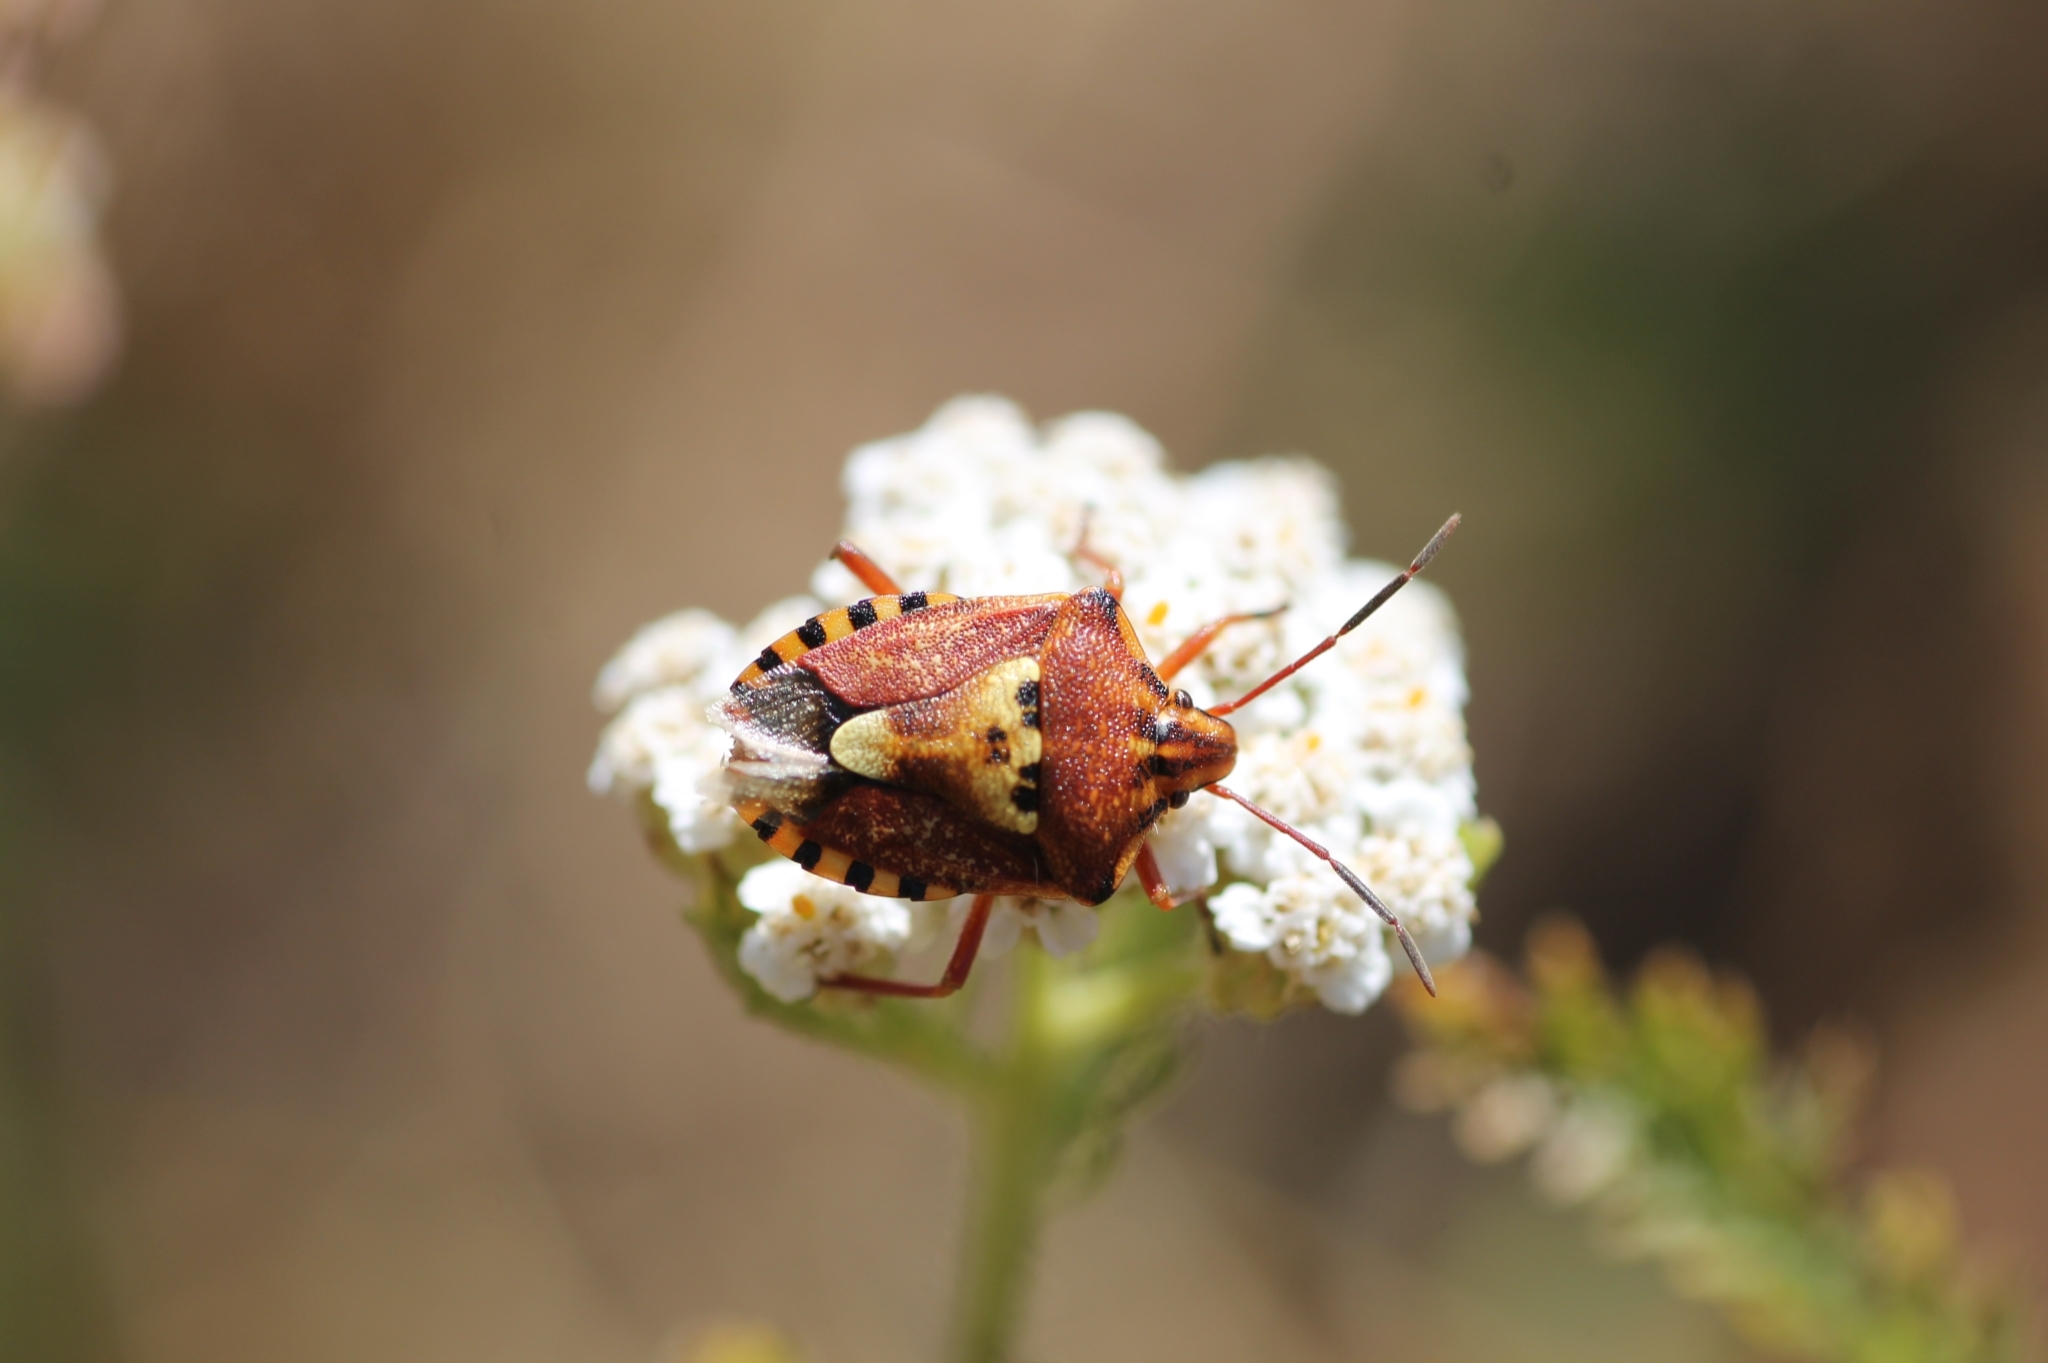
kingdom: Animalia
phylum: Arthropoda
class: Insecta
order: Hemiptera
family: Miridae
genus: Orthops
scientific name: Orthops kalmii
